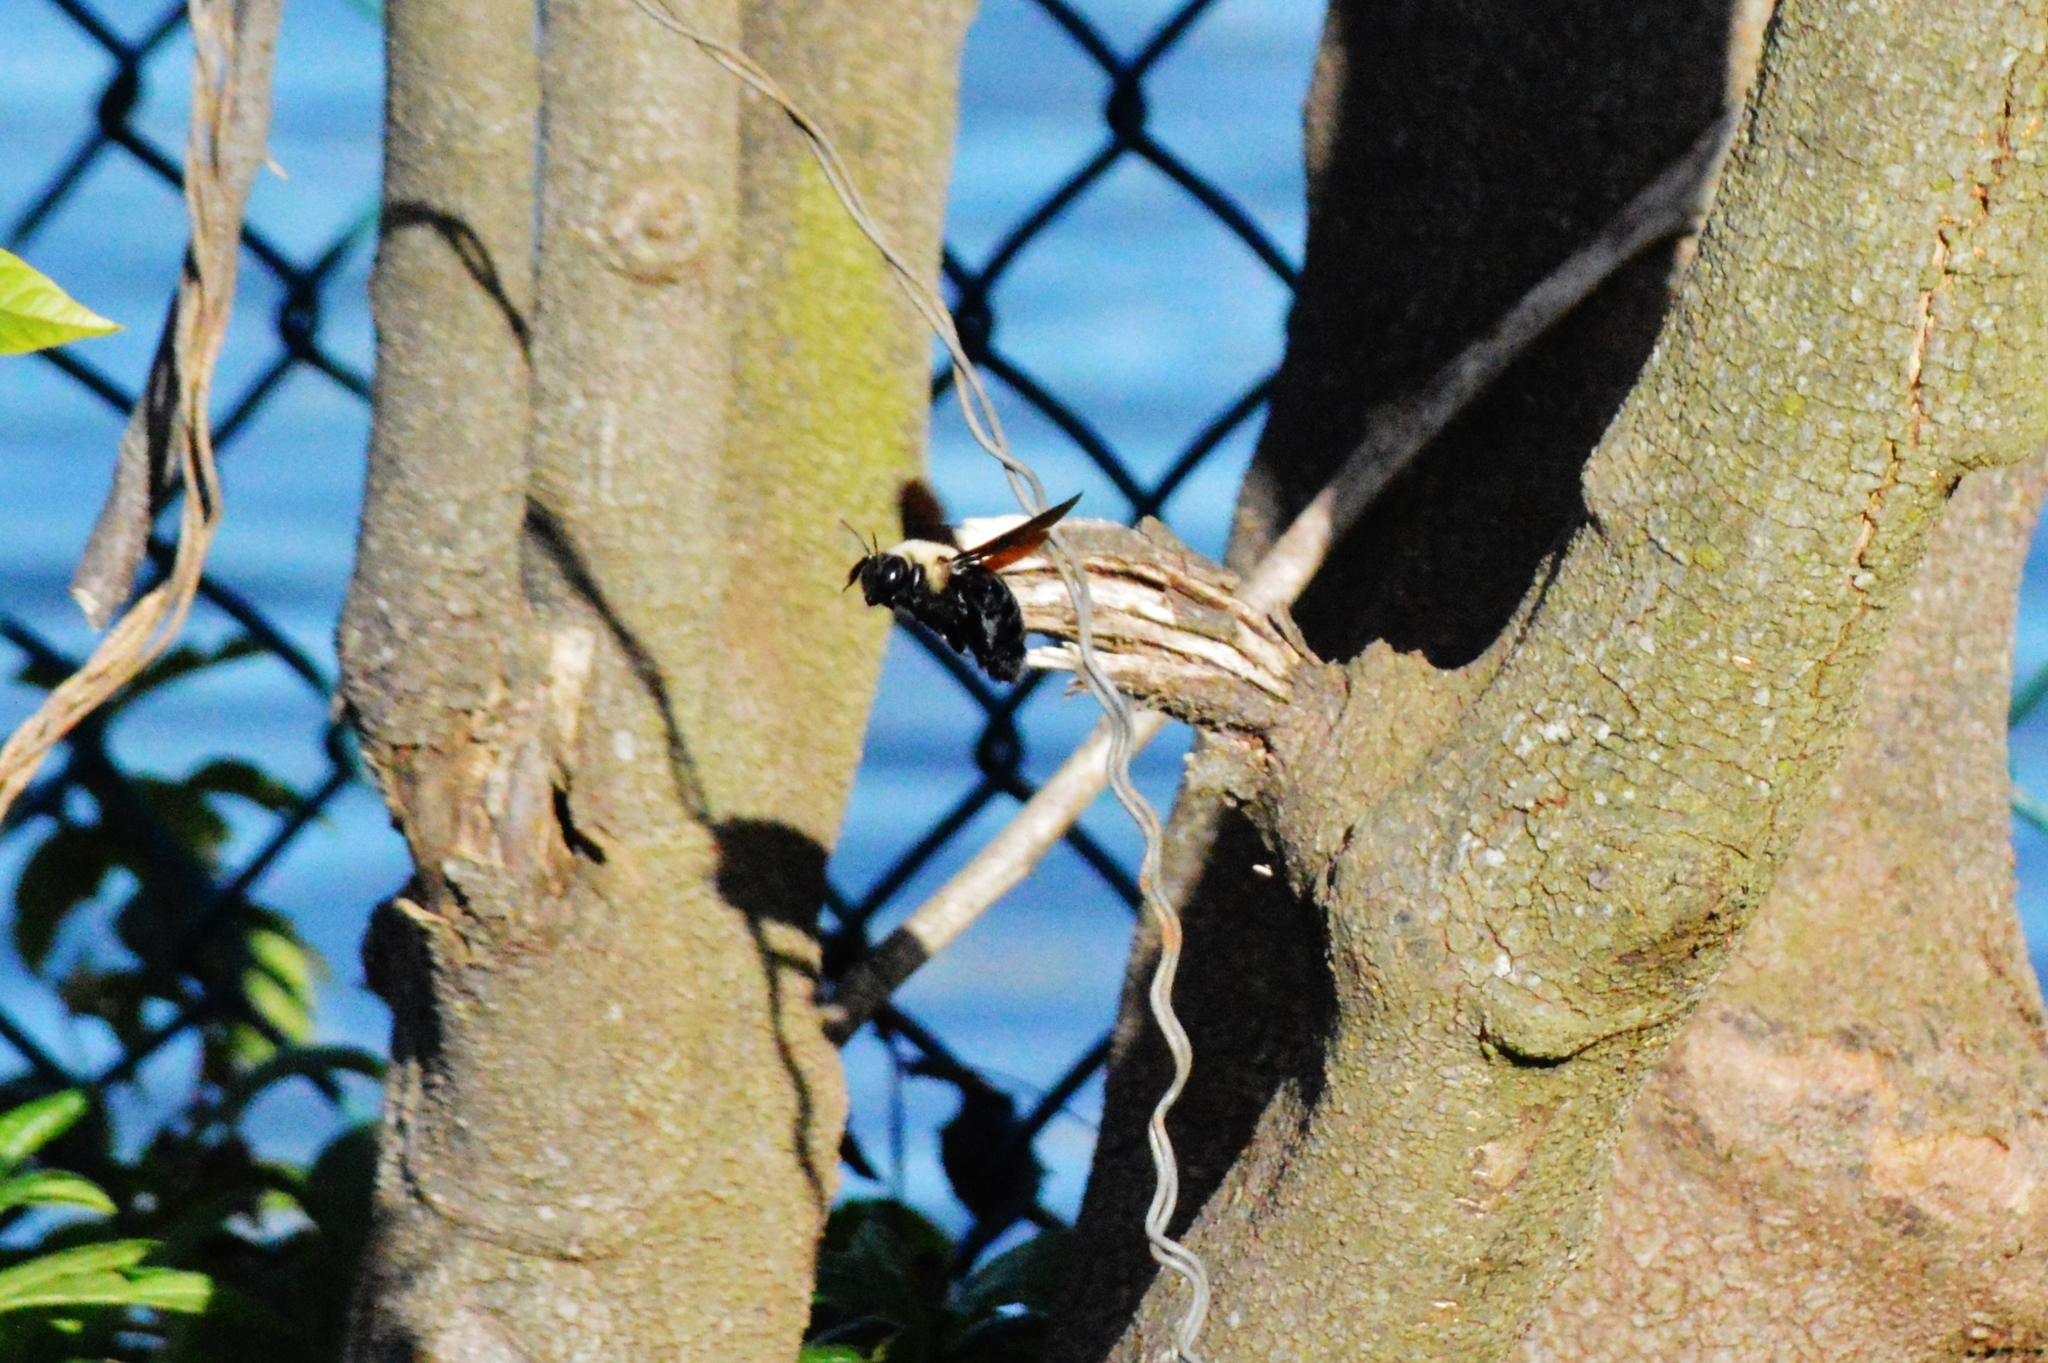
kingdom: Animalia
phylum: Arthropoda
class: Insecta
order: Hymenoptera
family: Apidae
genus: Xylocopa
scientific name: Xylocopa grisescens
